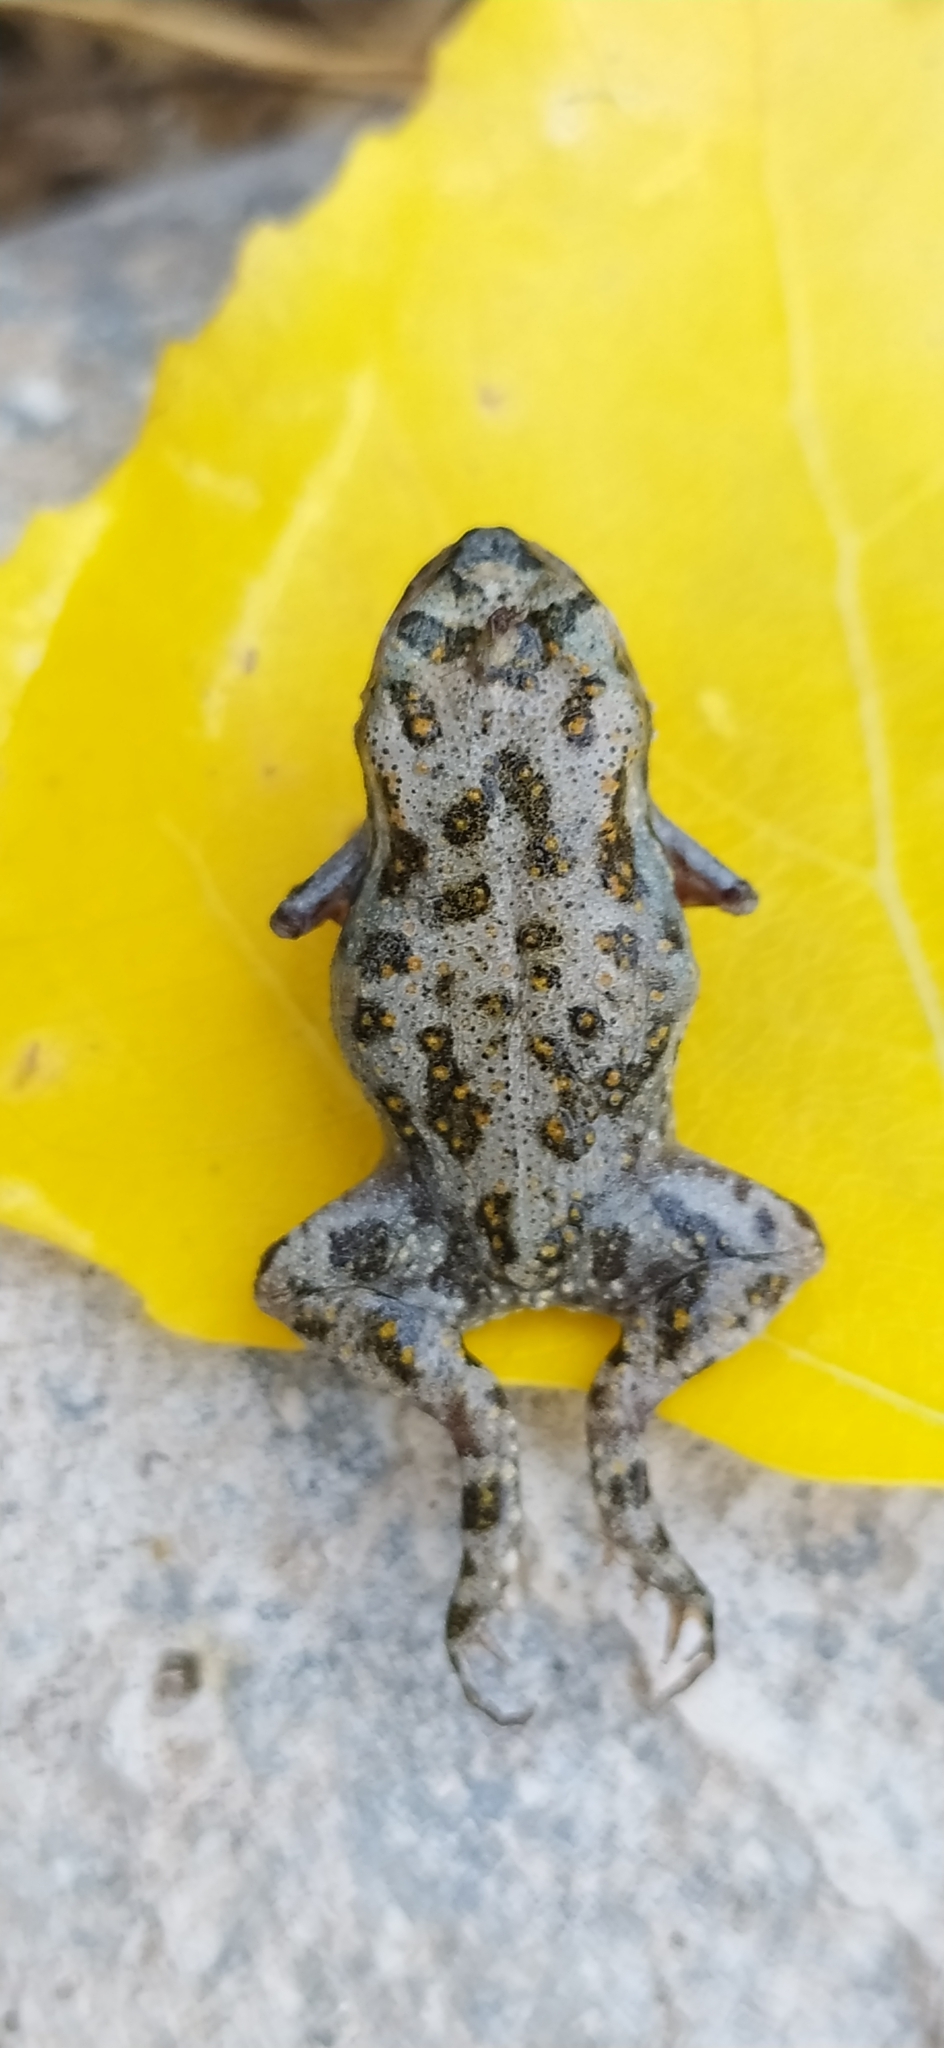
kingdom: Animalia
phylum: Chordata
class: Amphibia
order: Anura
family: Bufonidae
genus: Bufotes
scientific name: Bufotes pewzowi
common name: Xinjiang toad
